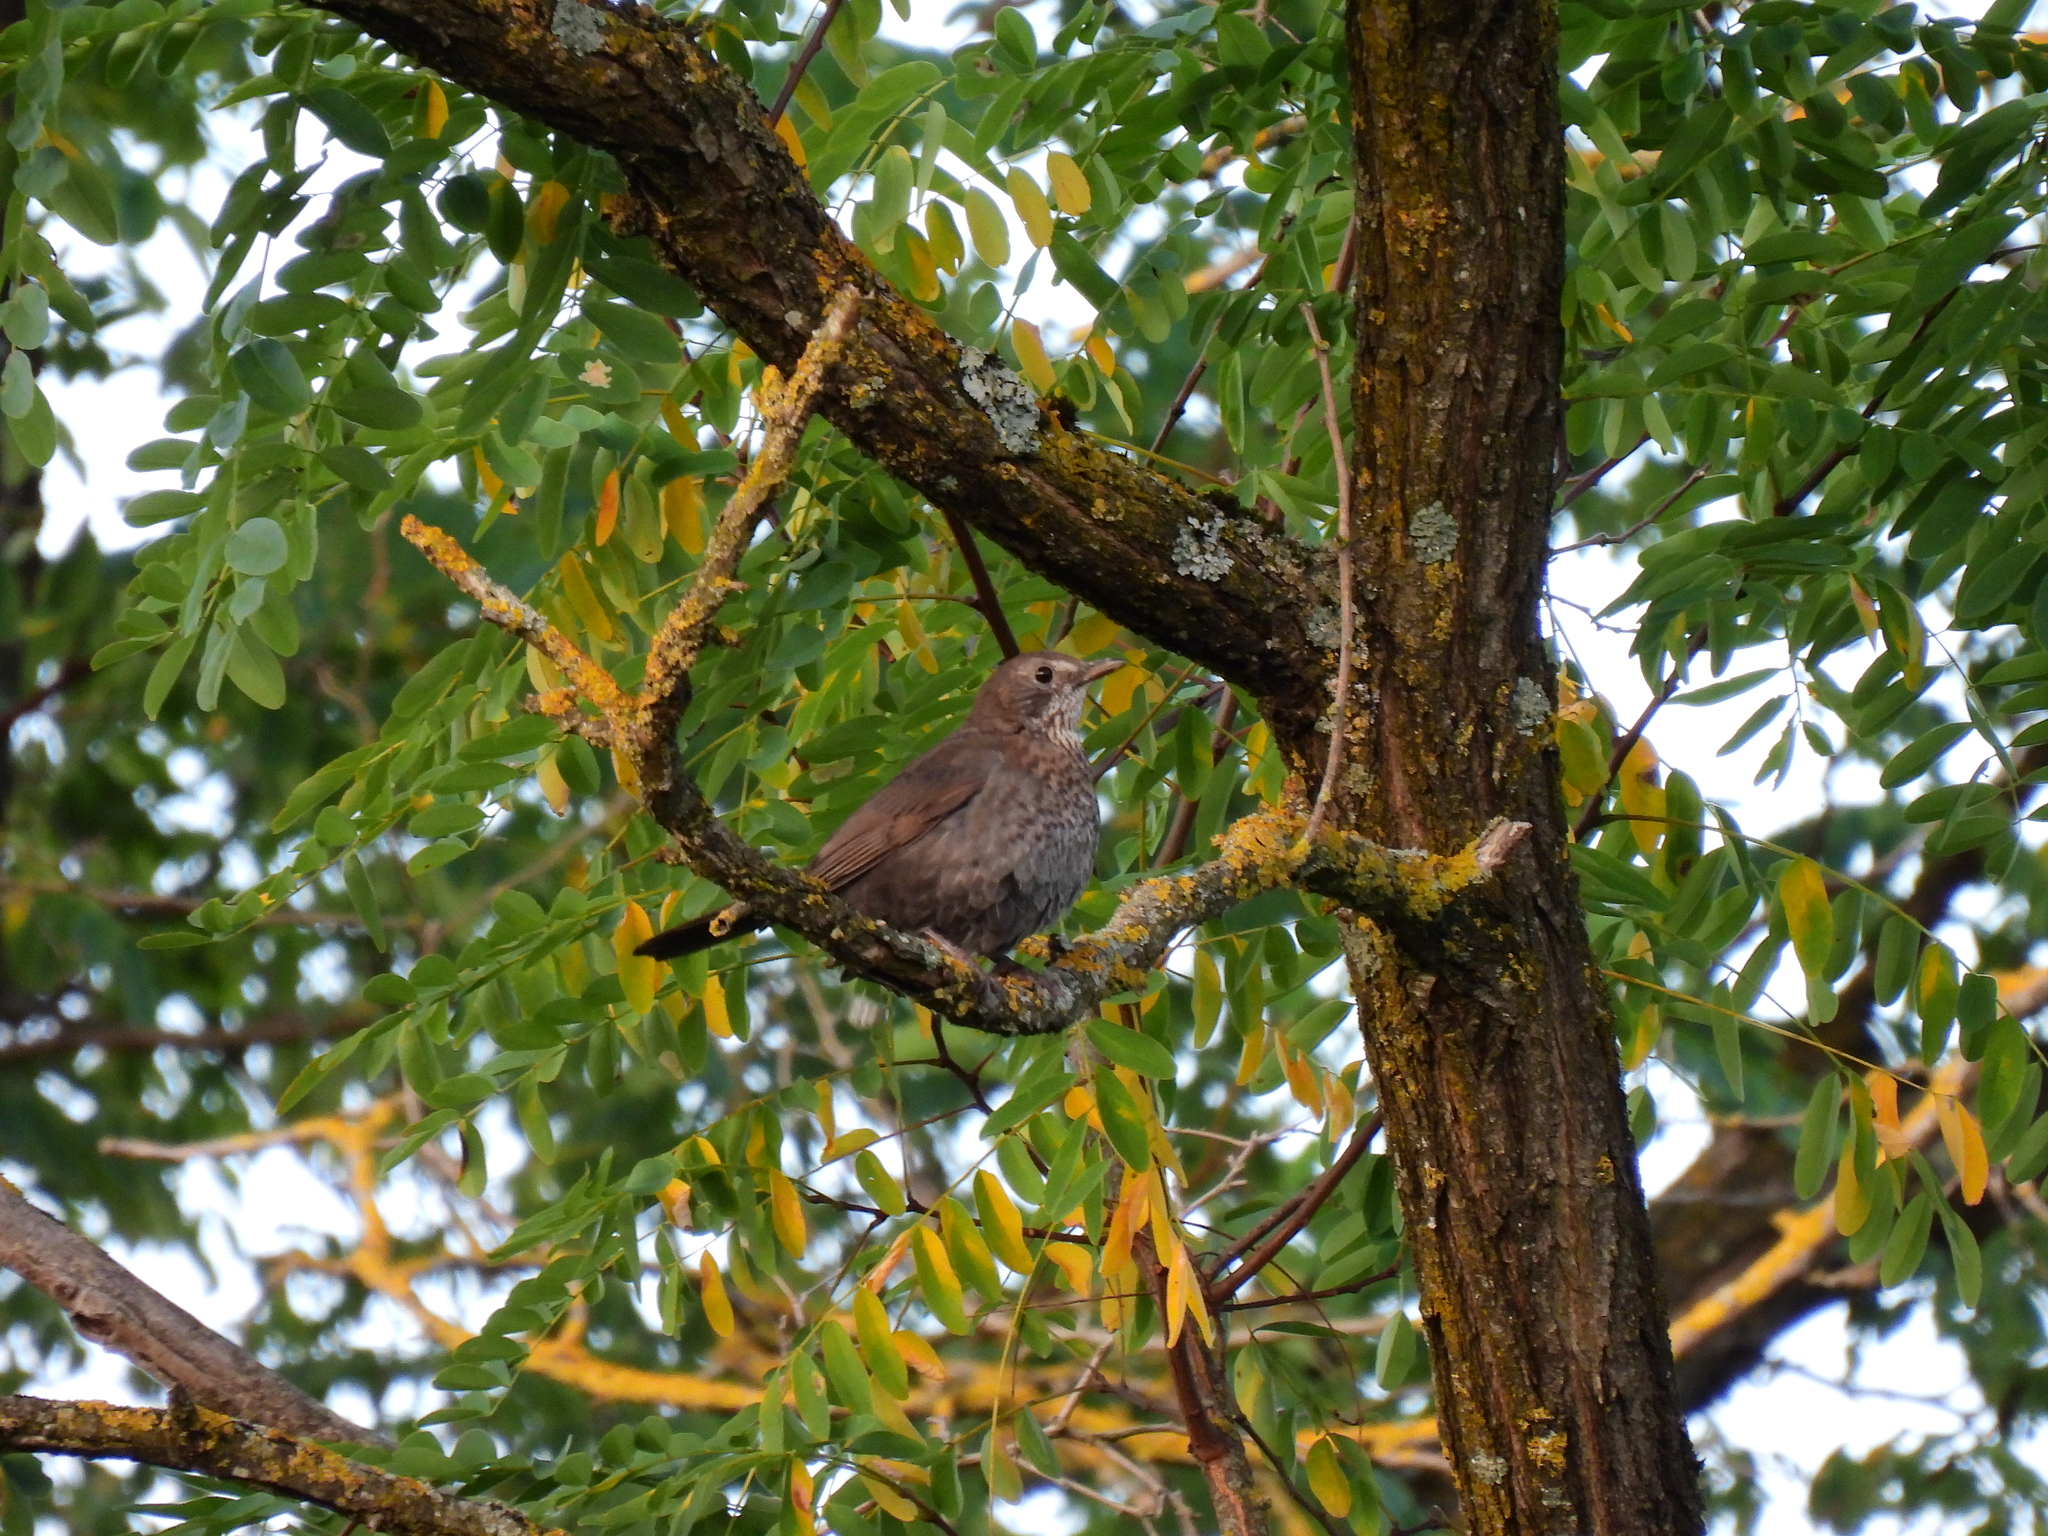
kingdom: Animalia
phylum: Chordata
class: Aves
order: Passeriformes
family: Turdidae
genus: Turdus
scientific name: Turdus merula
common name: Common blackbird
